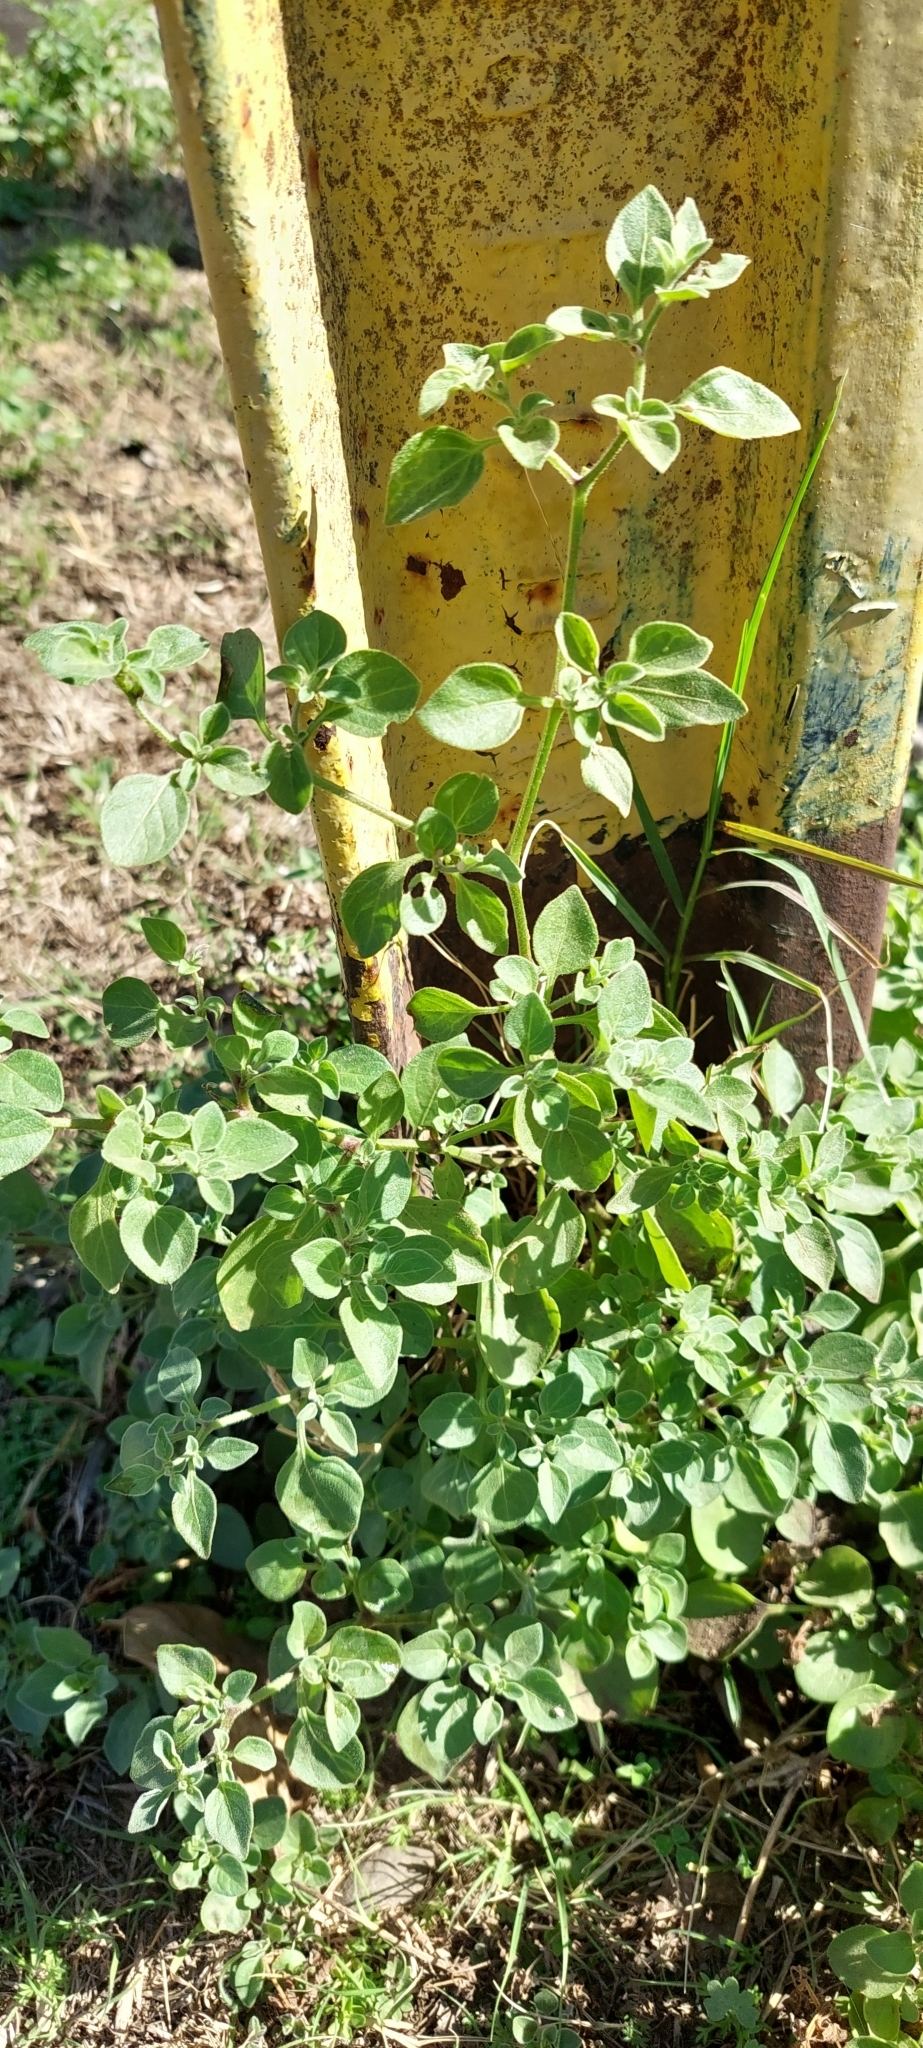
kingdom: Plantae
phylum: Tracheophyta
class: Magnoliopsida
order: Solanales
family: Solanaceae
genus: Salpichroa
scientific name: Salpichroa origanifolia
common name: Lily-of-the-valley-vine
